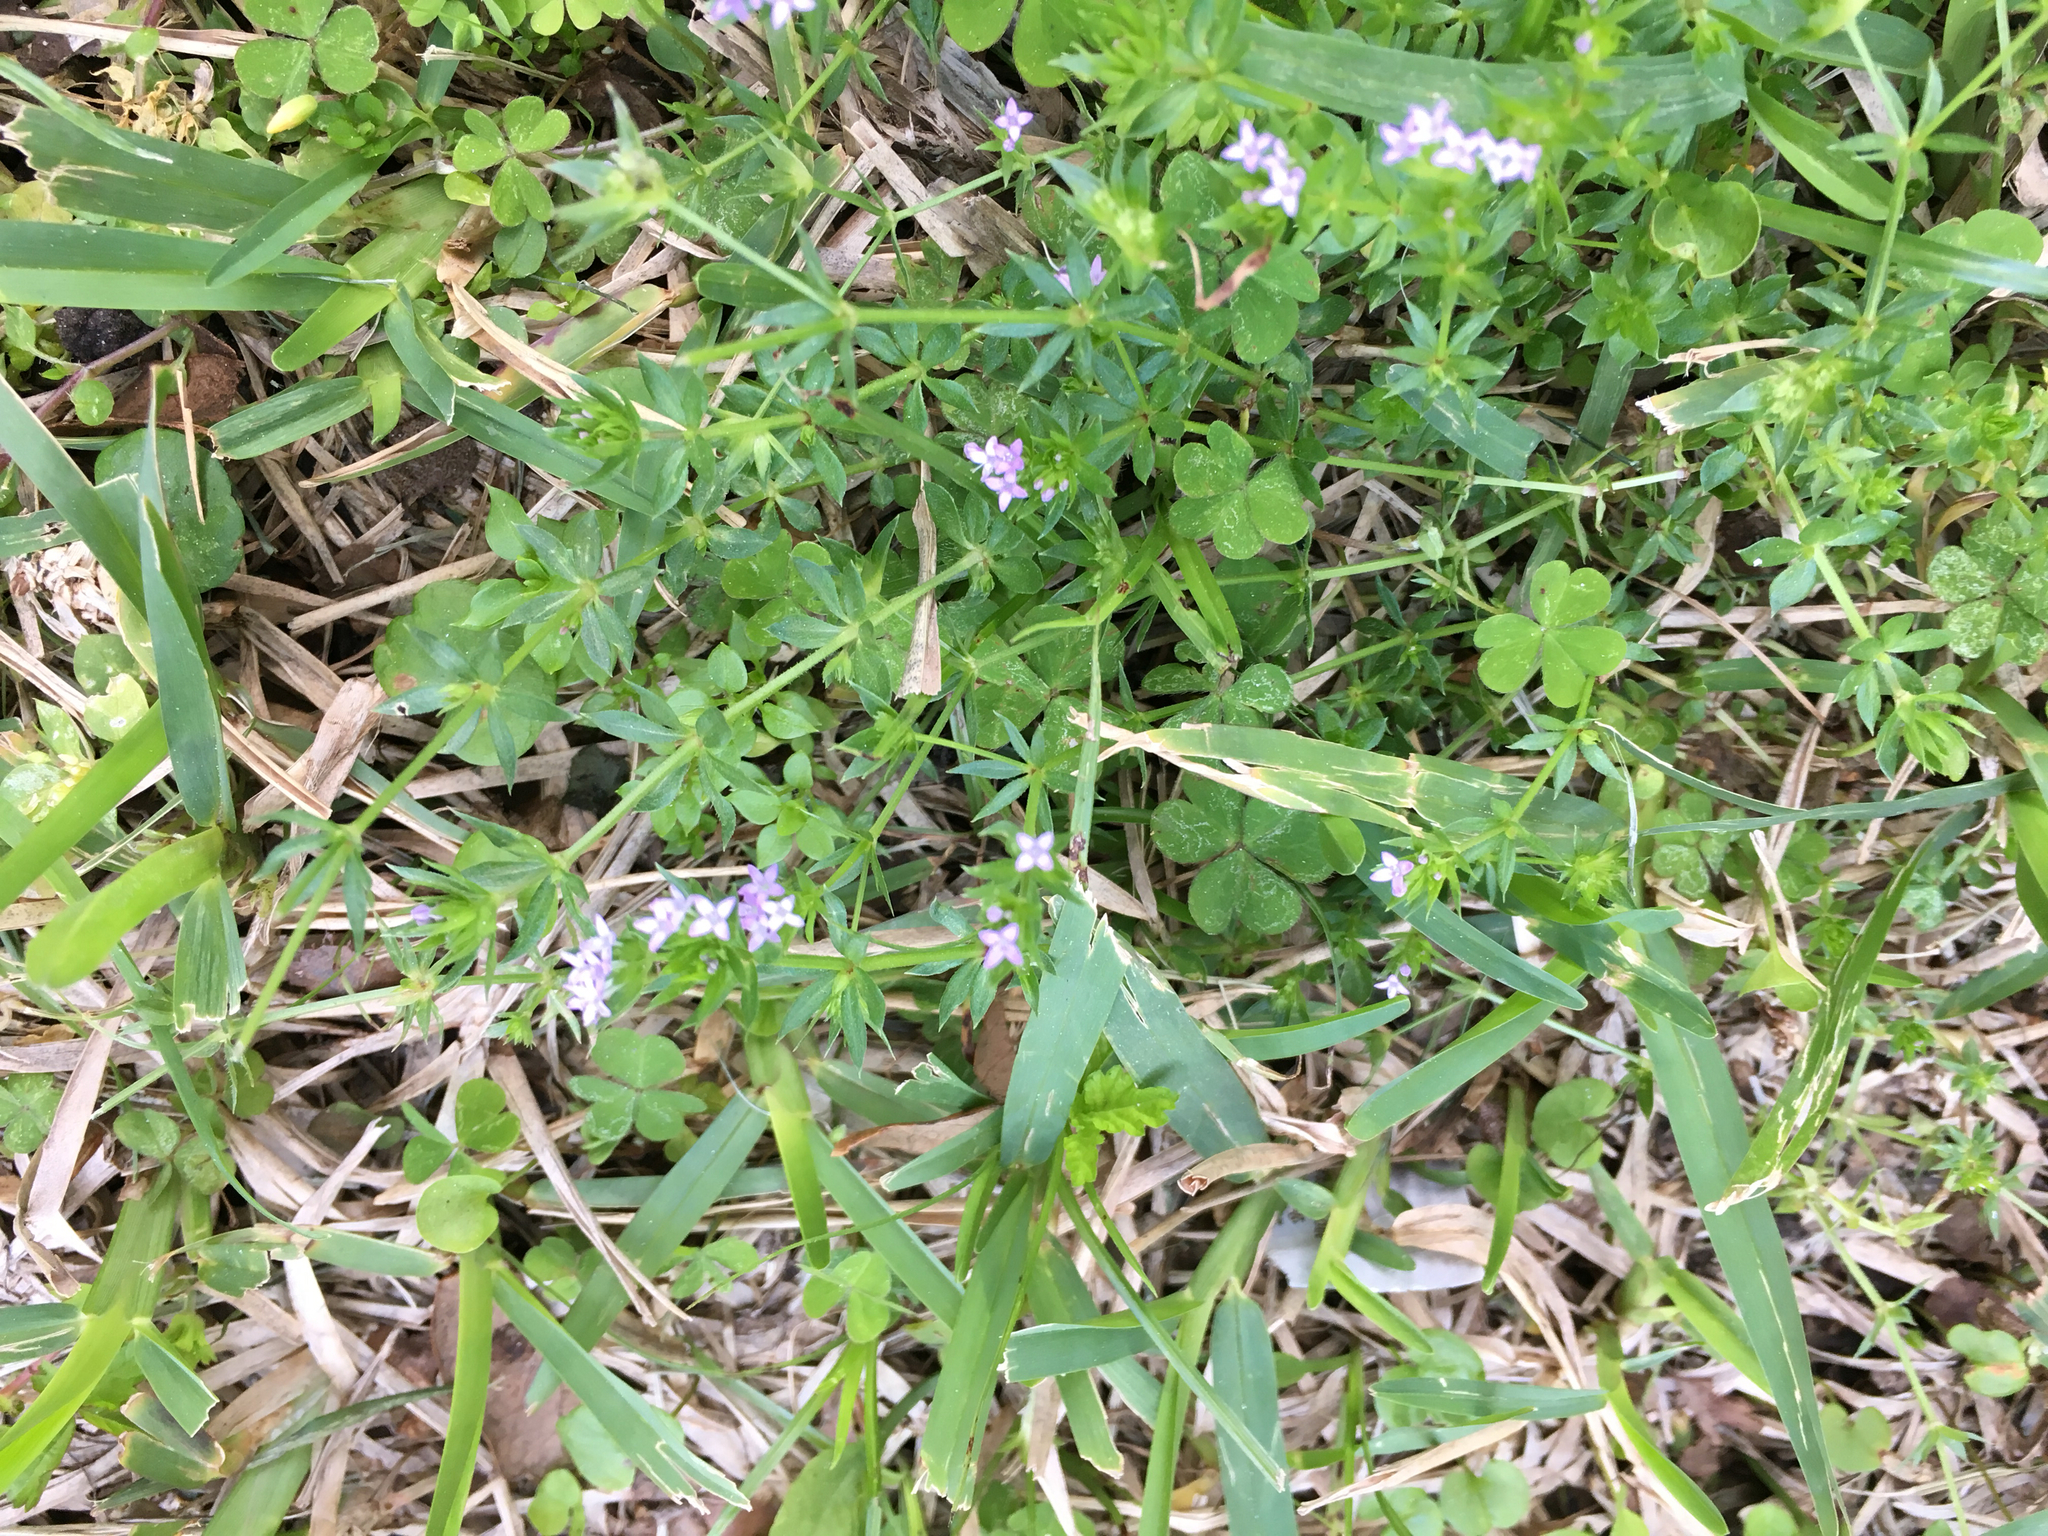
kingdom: Plantae
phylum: Tracheophyta
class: Magnoliopsida
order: Gentianales
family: Rubiaceae
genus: Sherardia
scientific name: Sherardia arvensis
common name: Field madder
